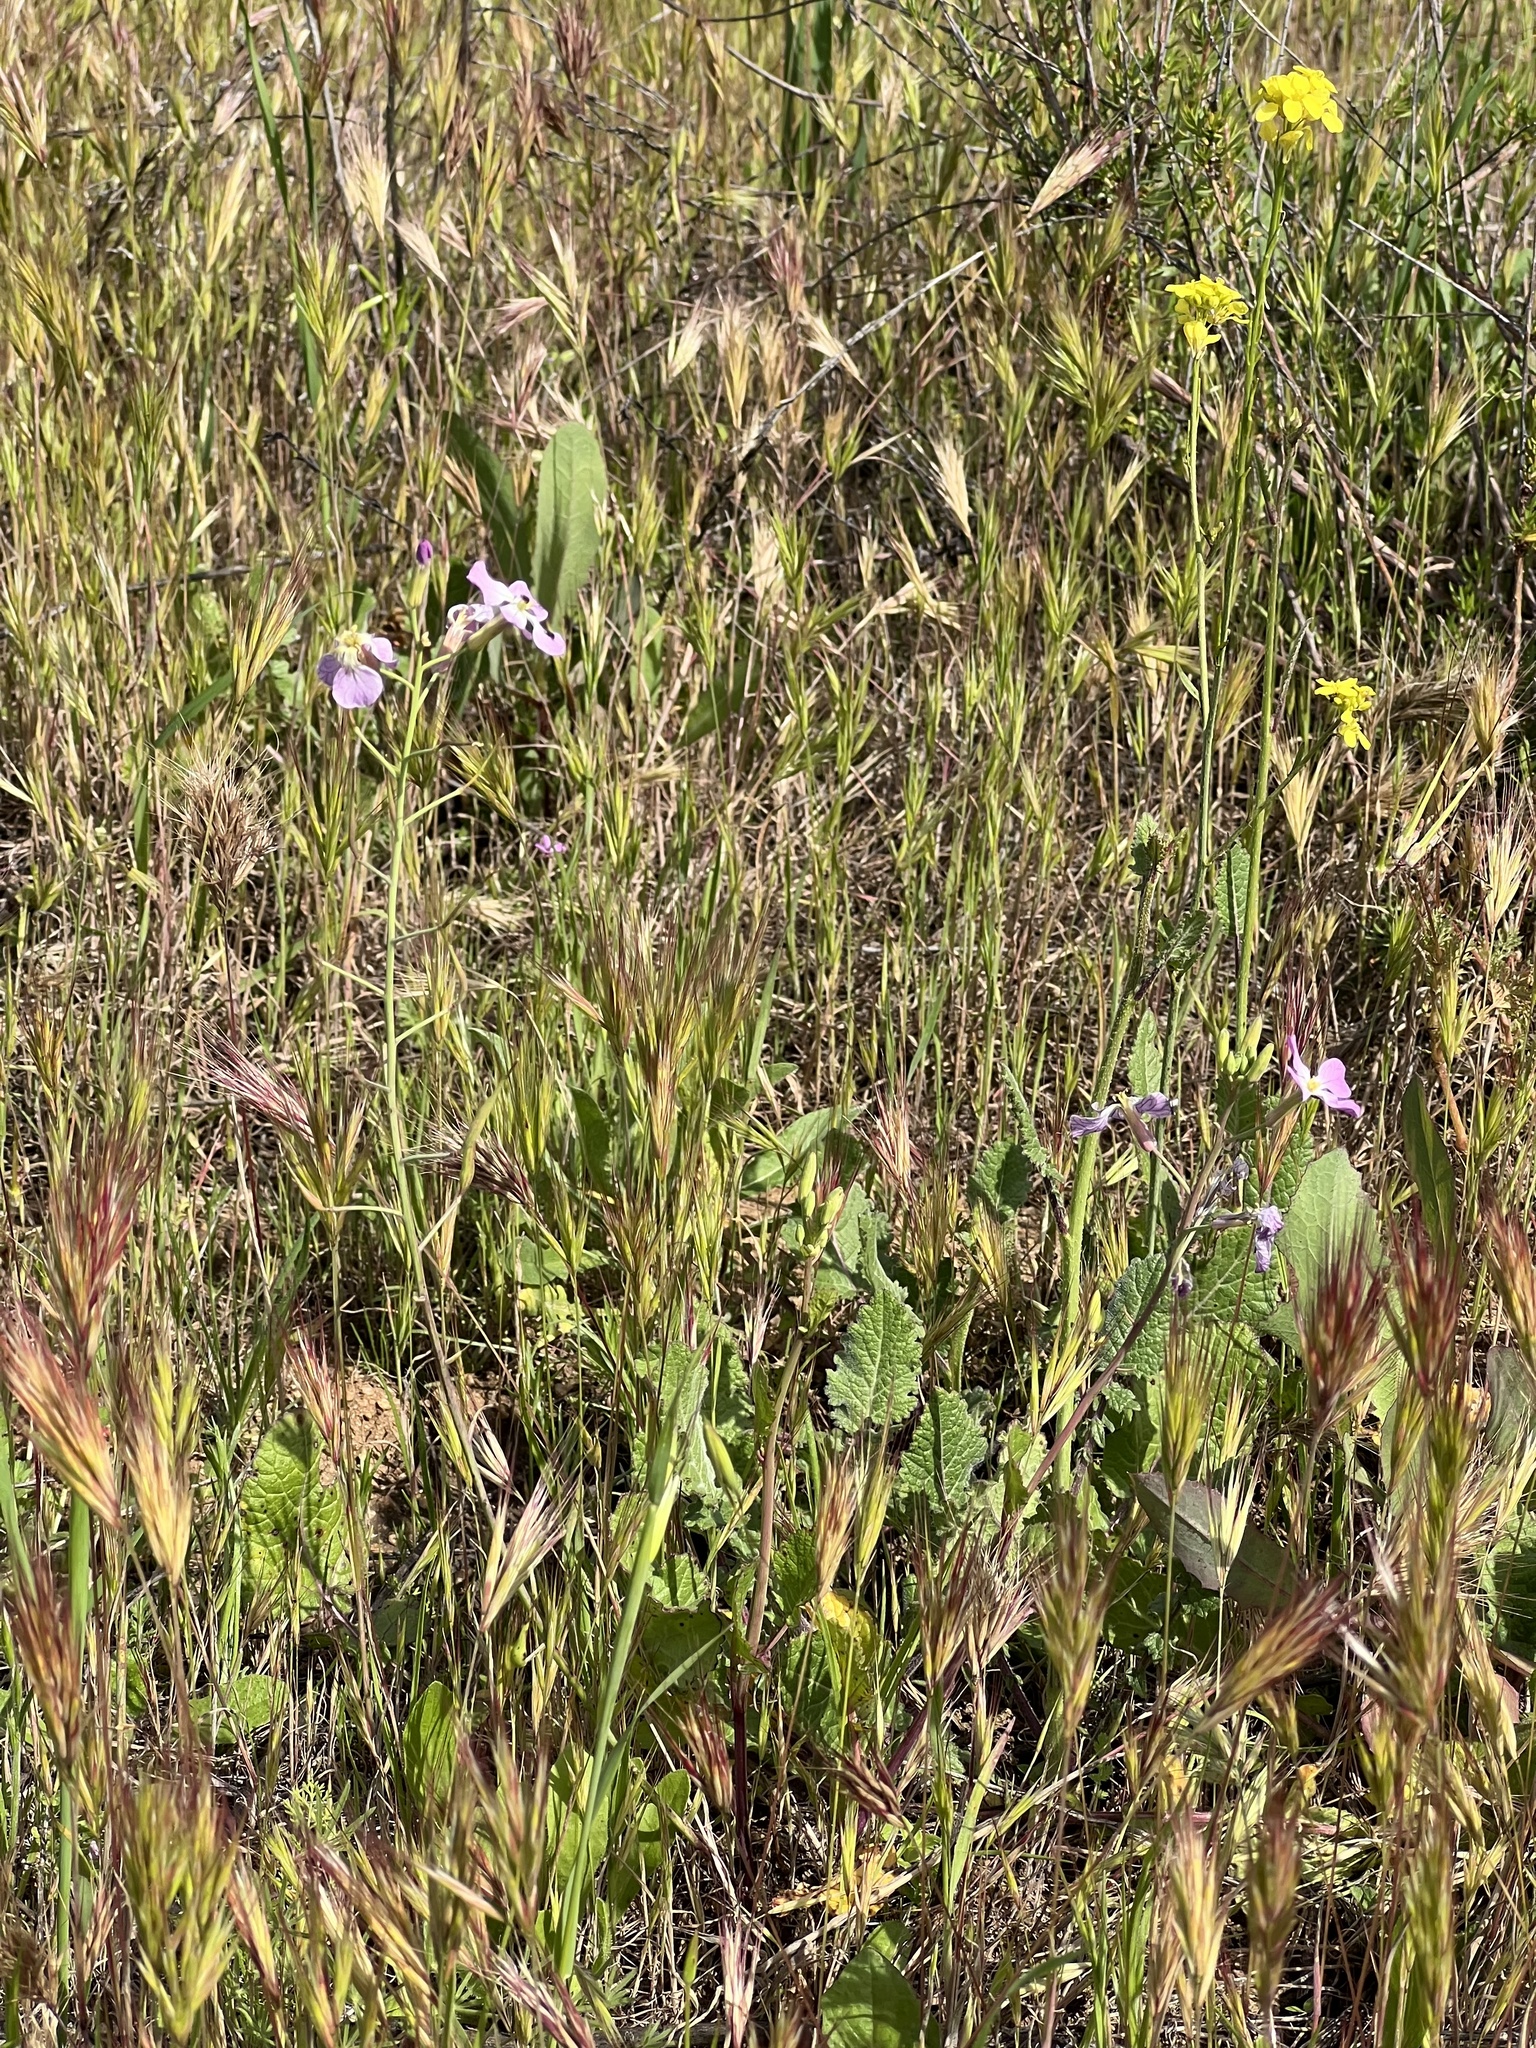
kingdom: Plantae
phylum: Tracheophyta
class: Magnoliopsida
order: Brassicales
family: Brassicaceae
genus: Raphanus
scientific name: Raphanus sativus
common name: Cultivated radish
